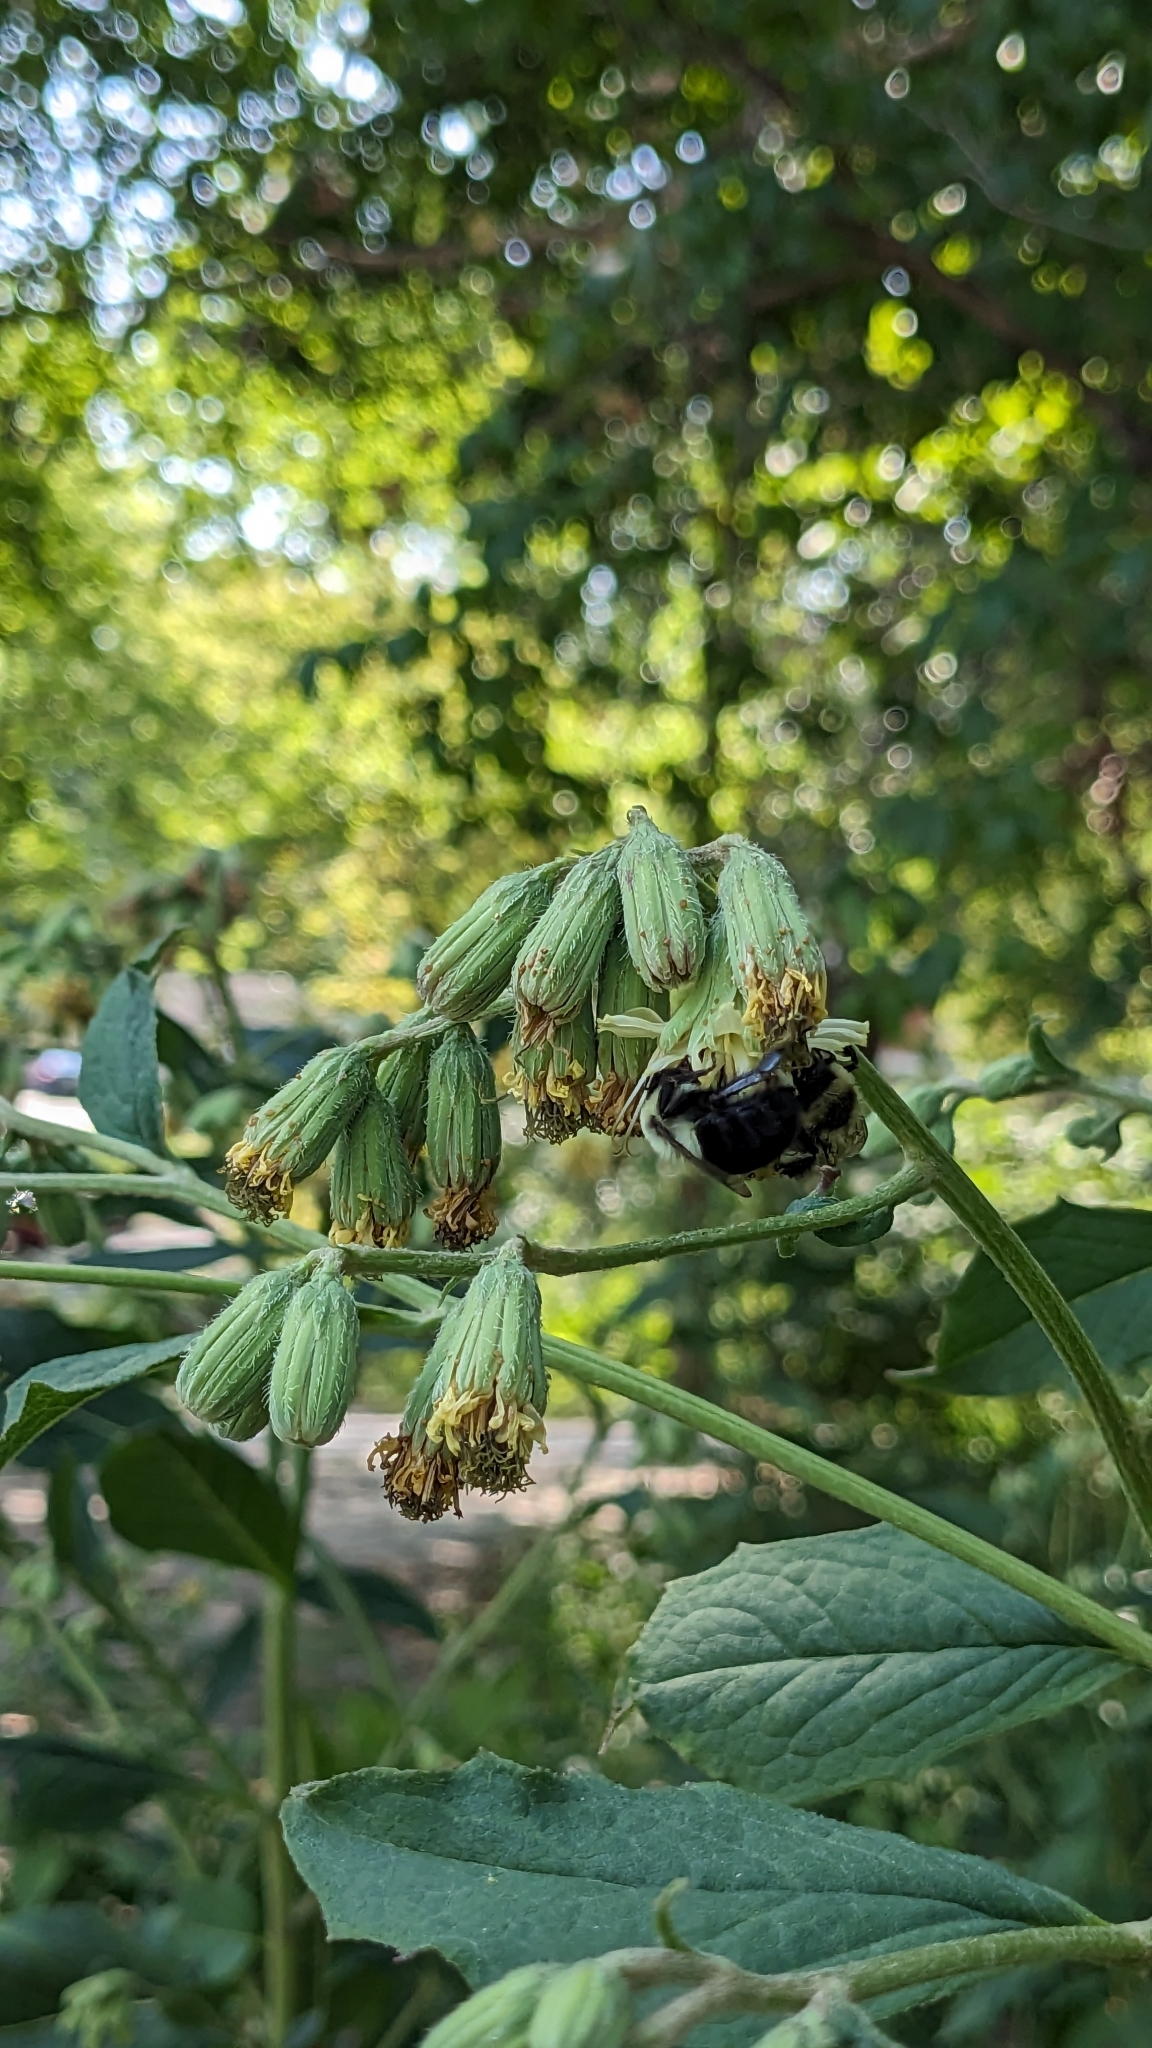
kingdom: Plantae
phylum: Tracheophyta
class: Magnoliopsida
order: Asterales
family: Asteraceae
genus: Nabalus
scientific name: Nabalus crepidineus
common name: Nodding rattlesnakeroot
